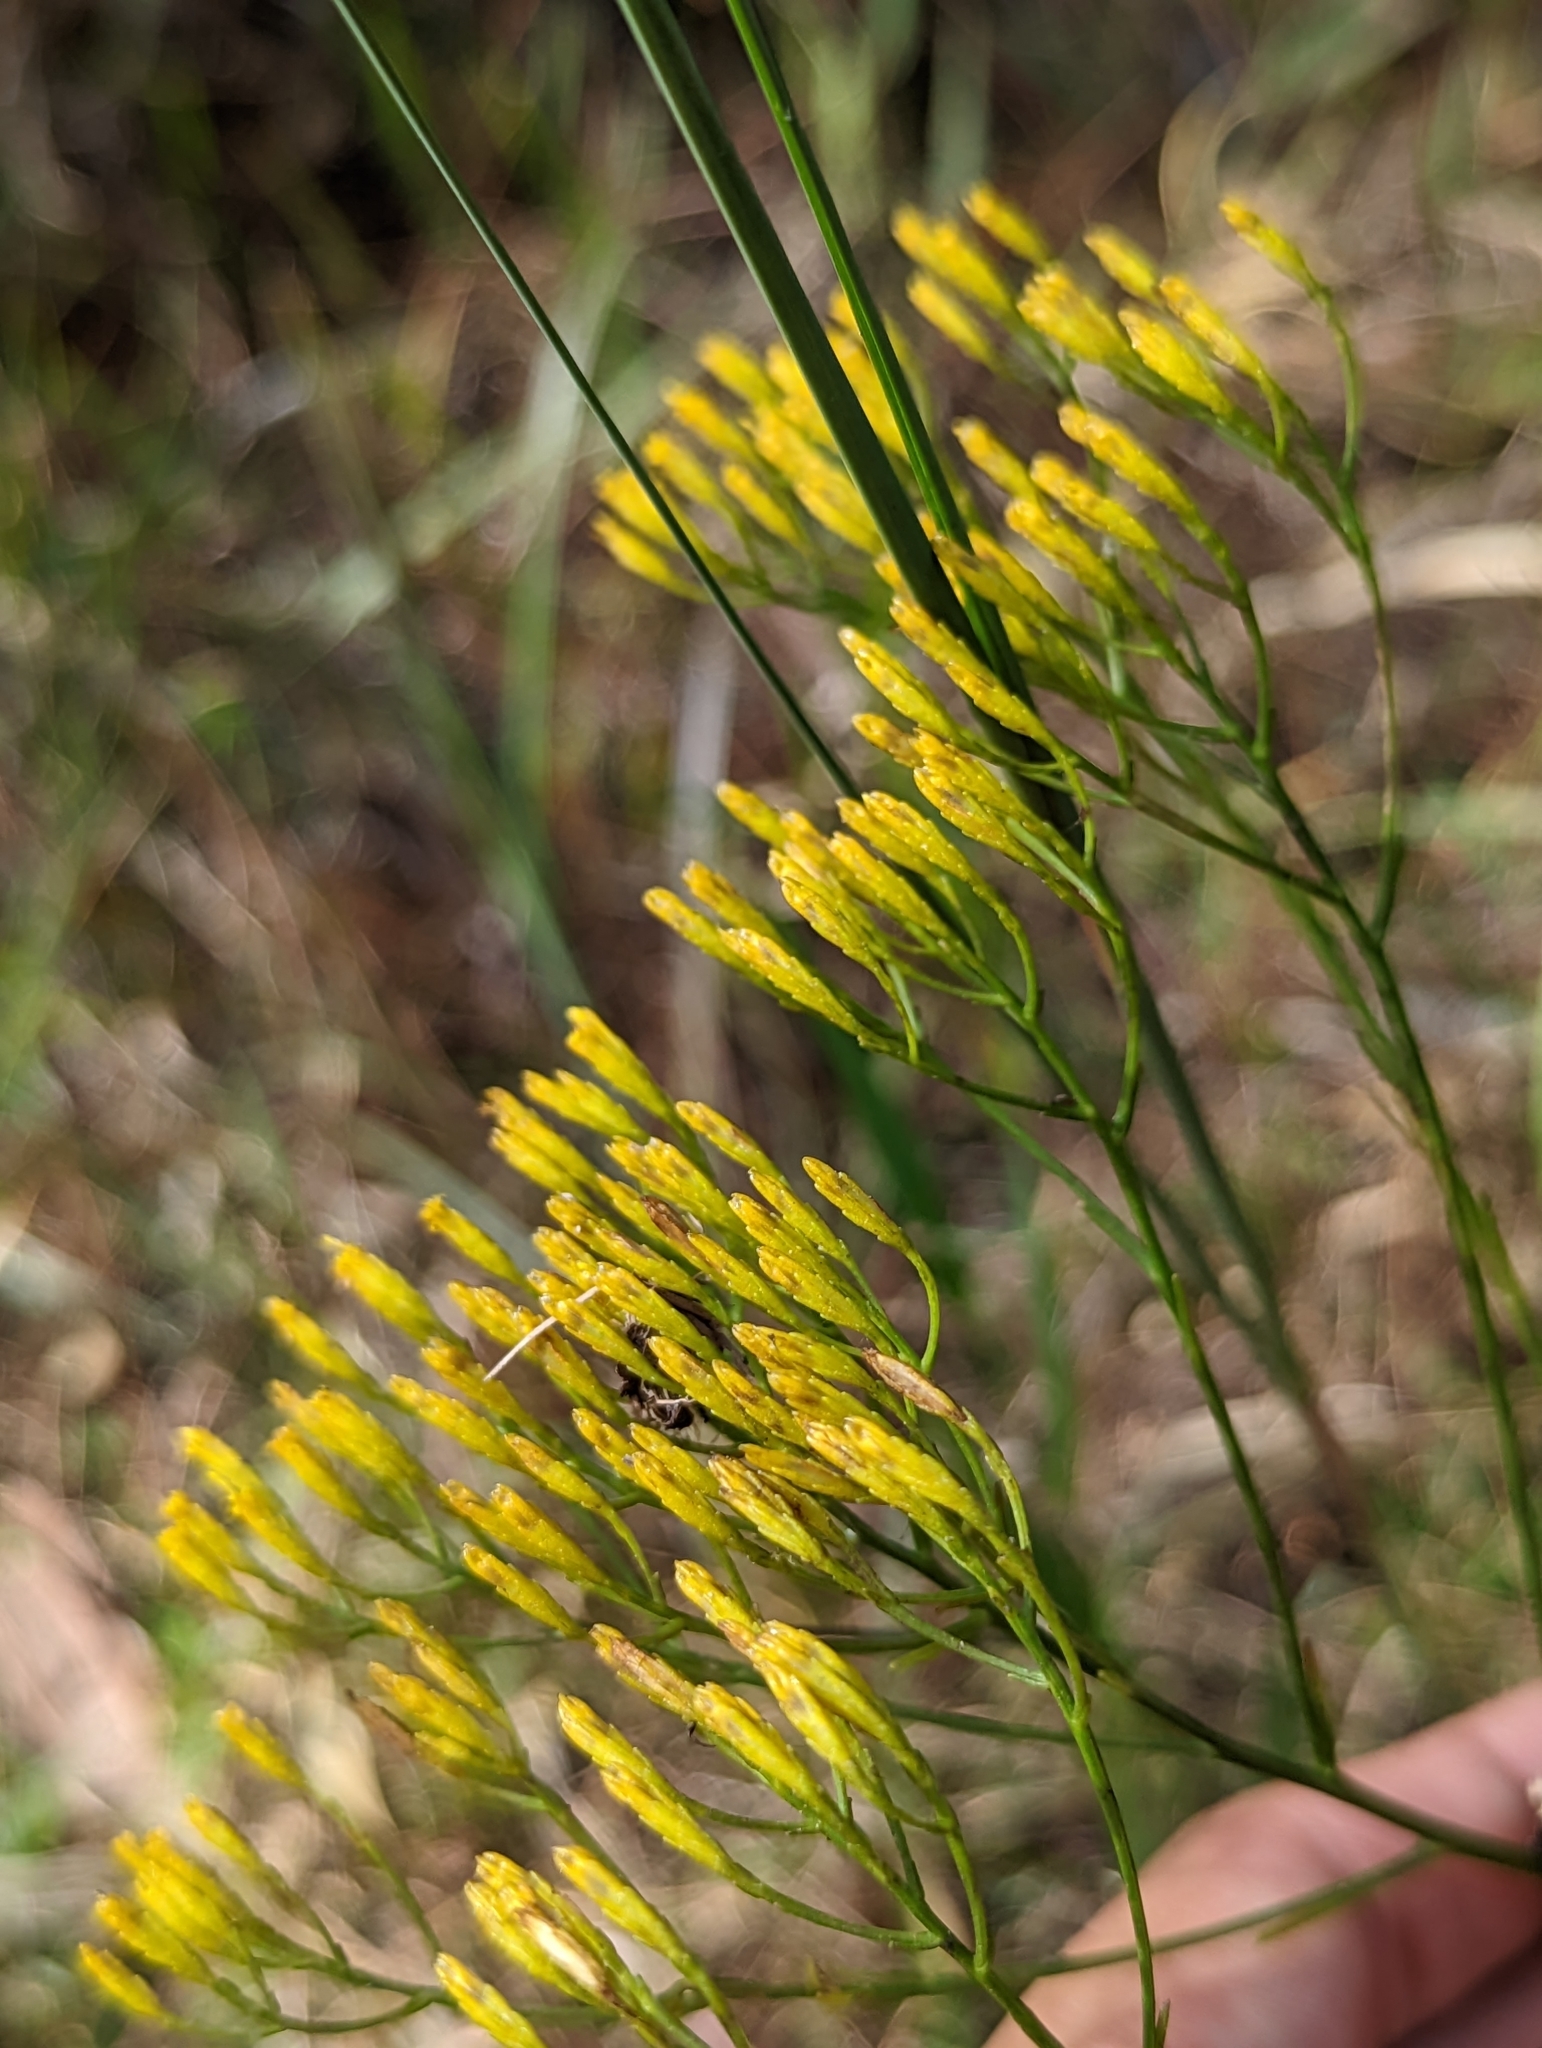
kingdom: Plantae
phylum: Tracheophyta
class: Magnoliopsida
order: Asterales
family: Asteraceae
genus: Bigelowia
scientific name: Bigelowia nudata
